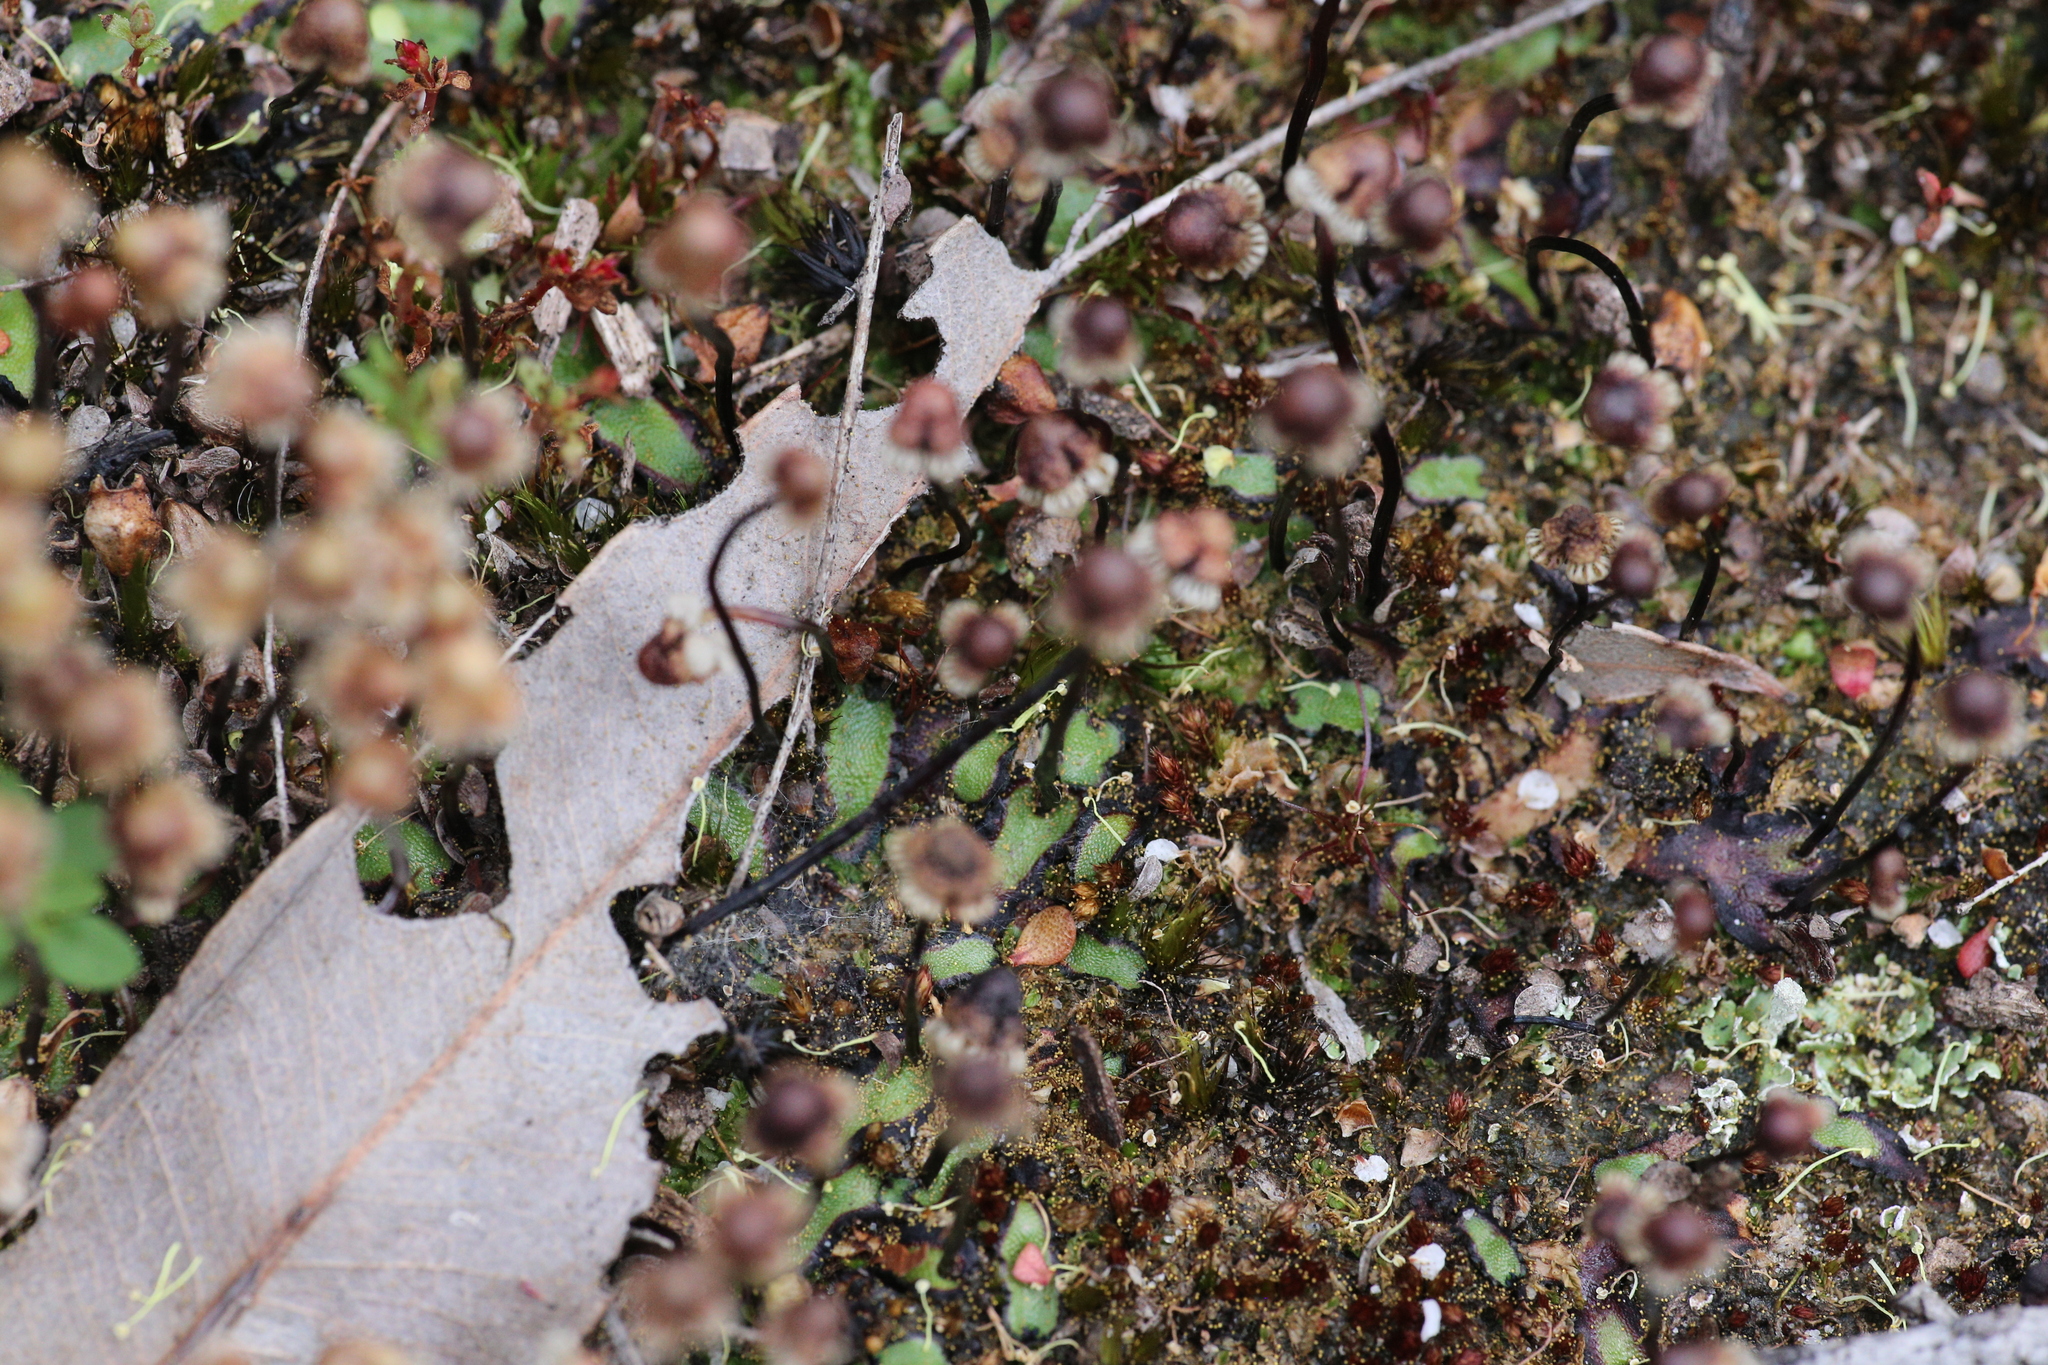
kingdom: Plantae
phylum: Marchantiophyta
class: Marchantiopsida
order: Marchantiales
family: Aytoniaceae
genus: Asterella
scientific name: Asterella drummondii
